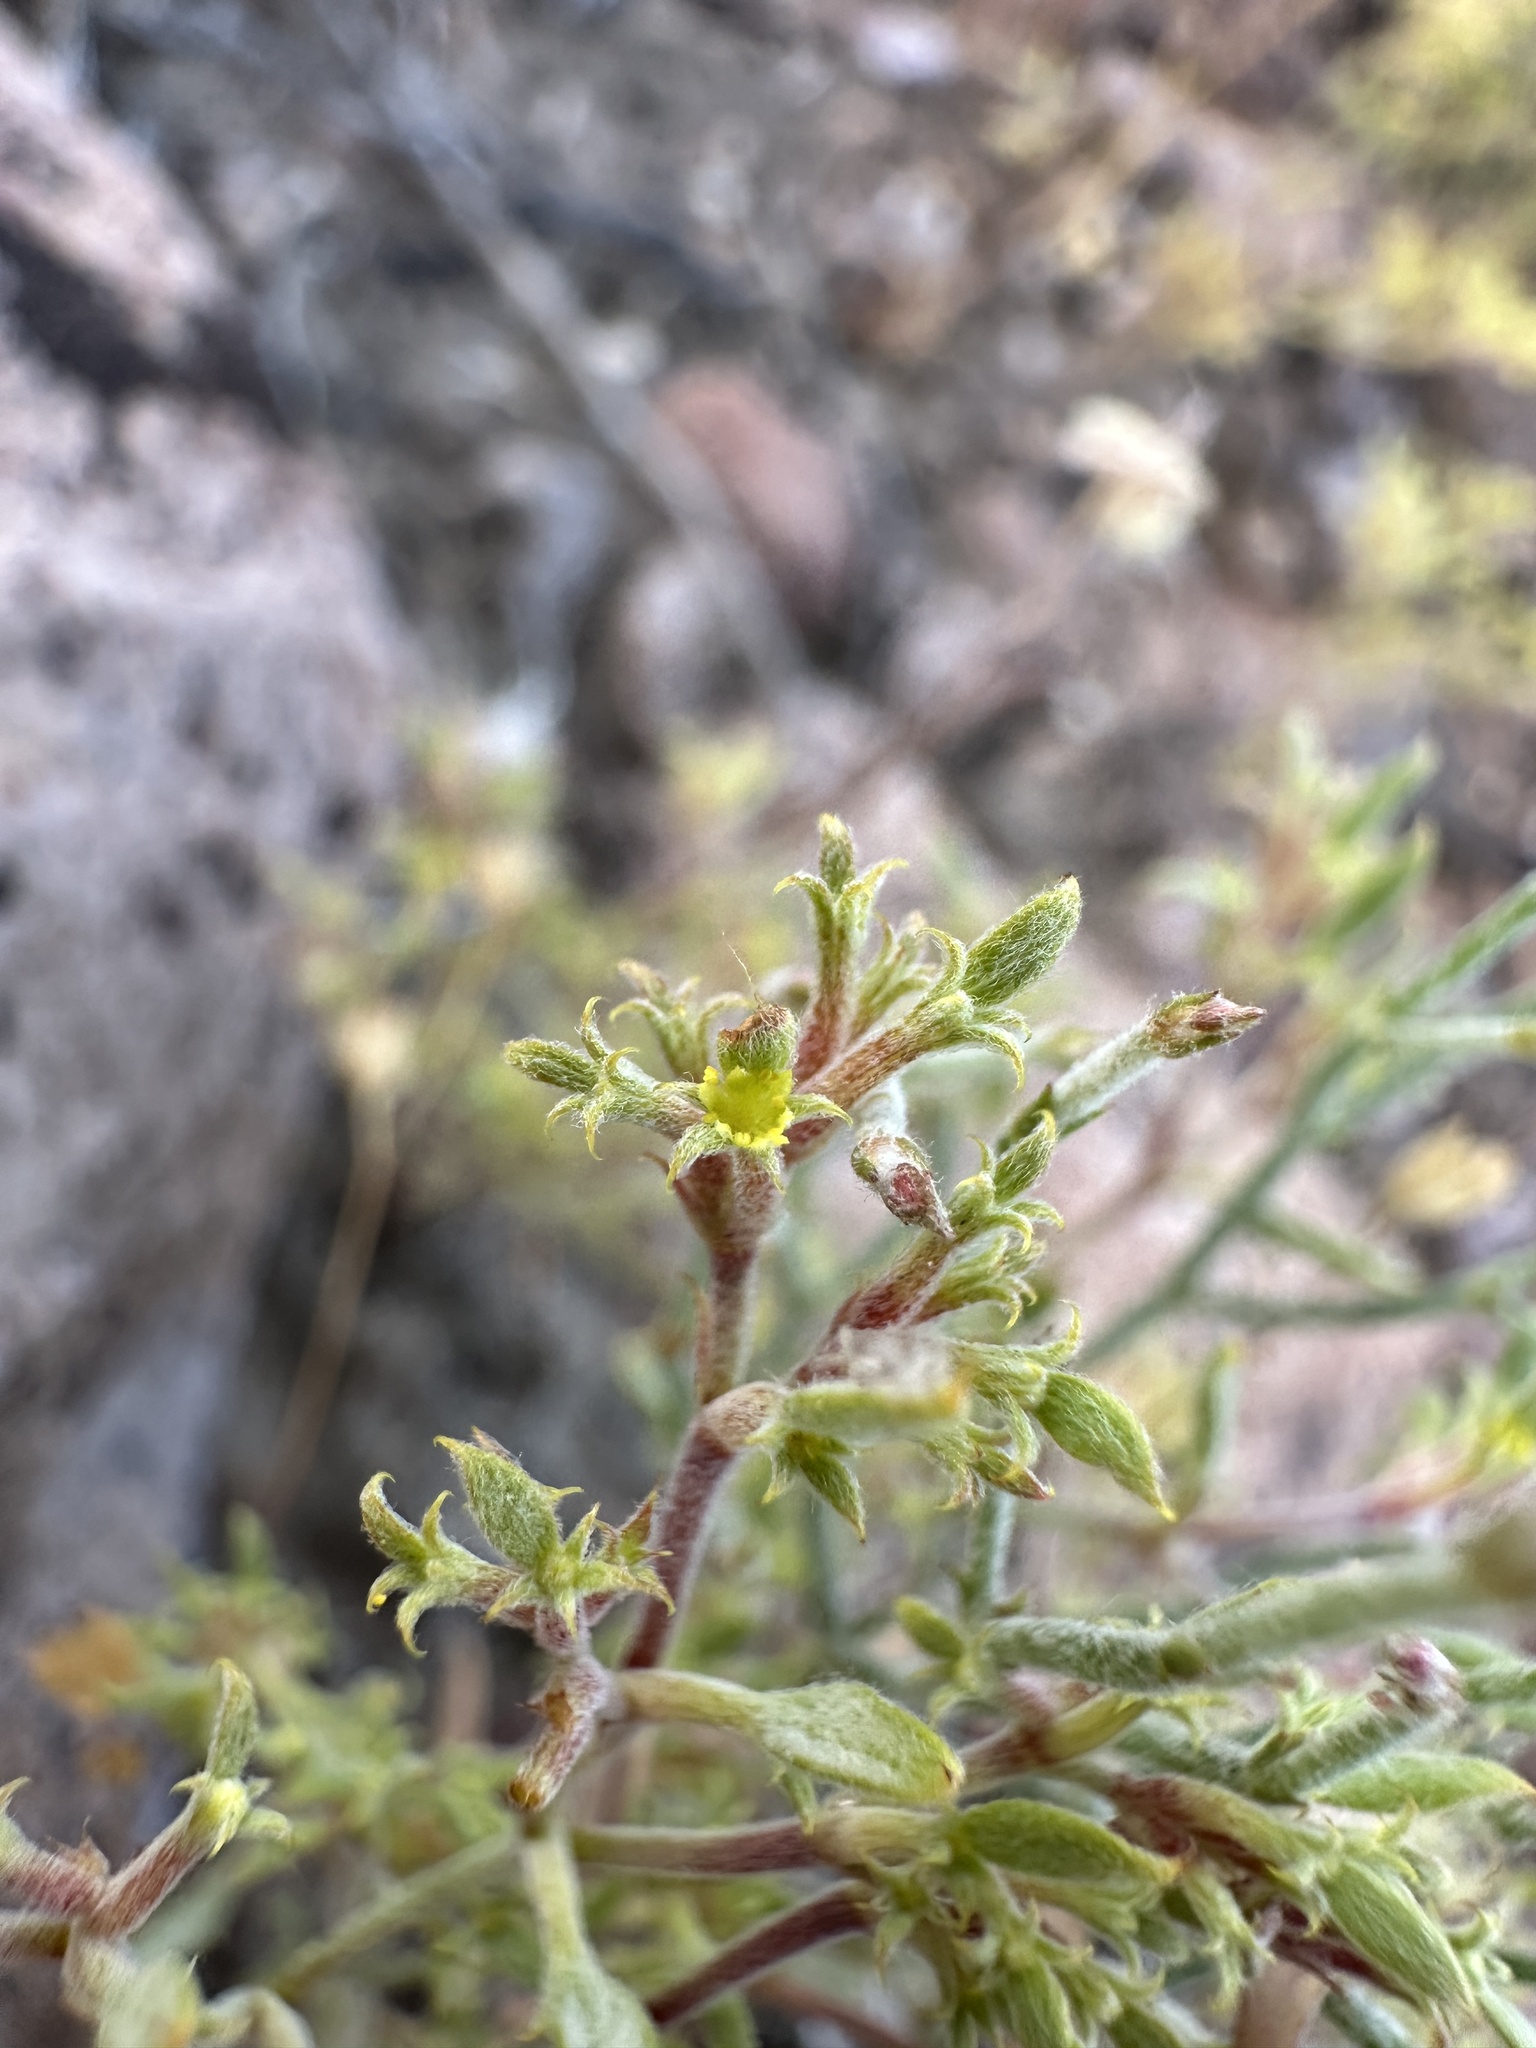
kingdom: Plantae
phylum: Tracheophyta
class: Magnoliopsida
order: Caryophyllales
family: Polygonaceae
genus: Chorizanthe
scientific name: Chorizanthe watsonii
